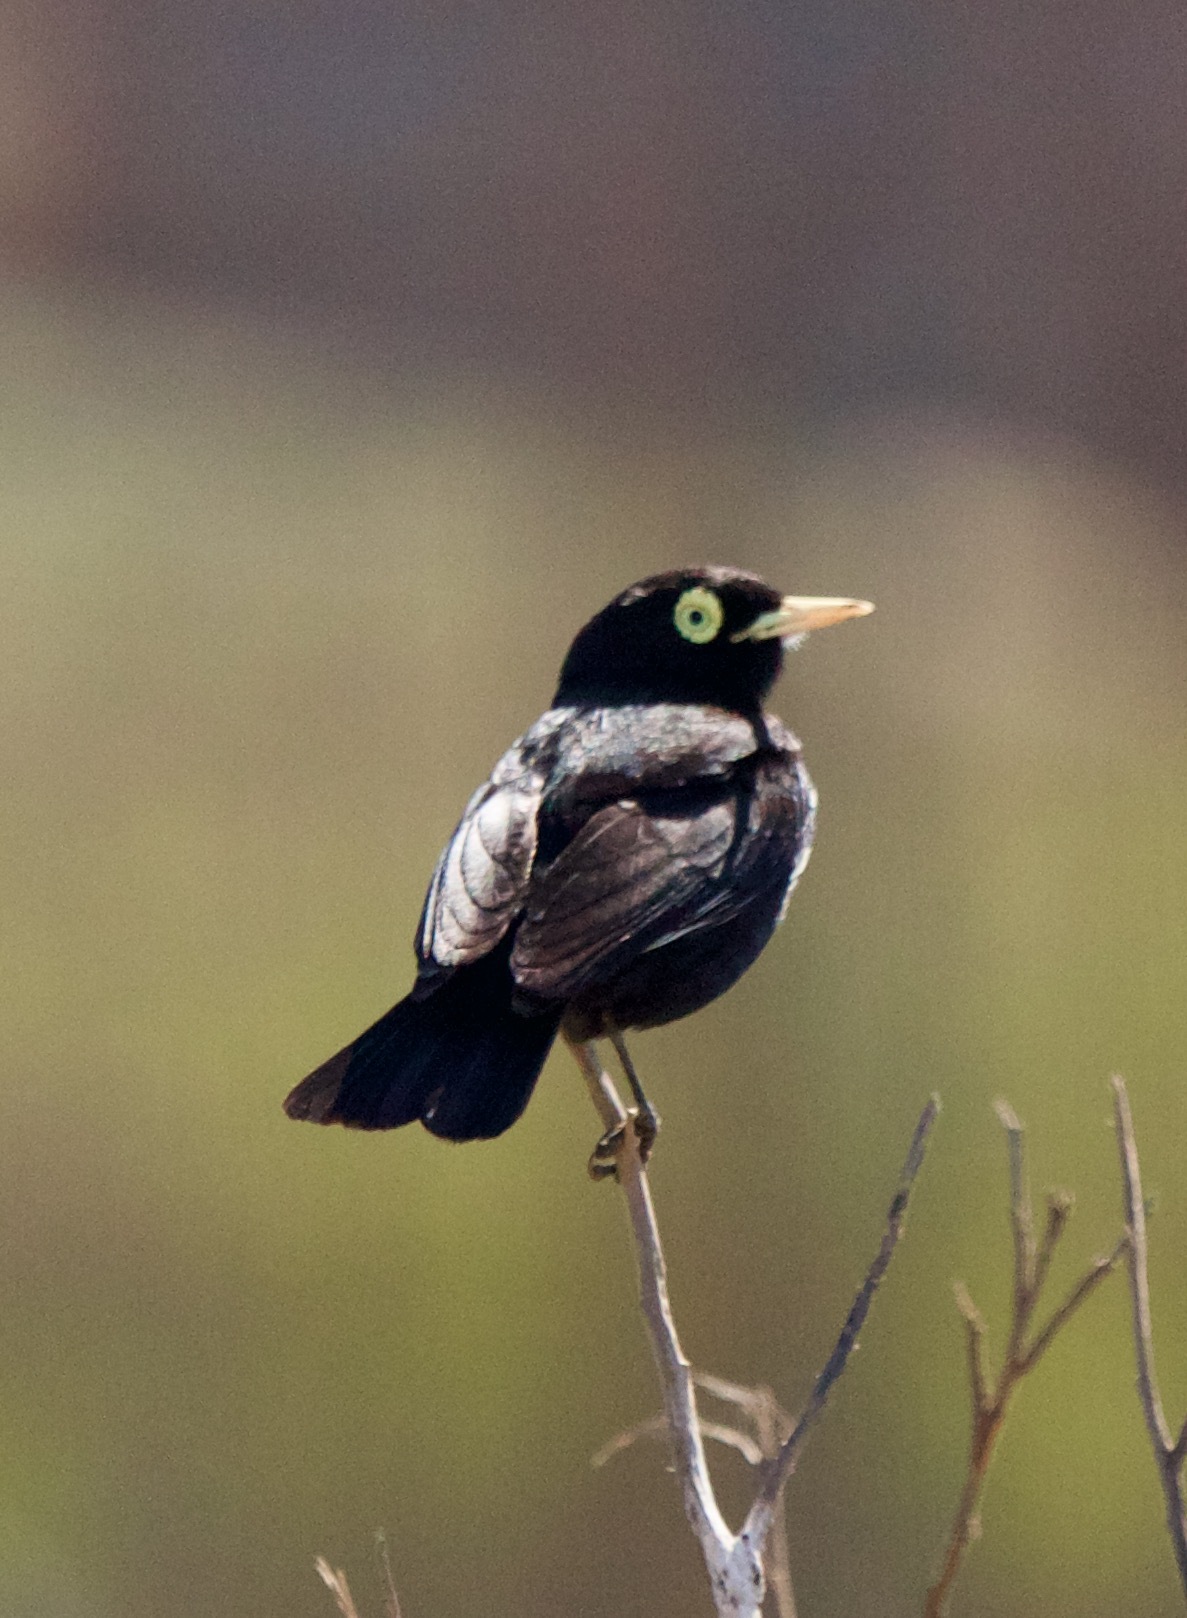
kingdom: Animalia
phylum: Chordata
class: Aves
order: Passeriformes
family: Tyrannidae
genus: Hymenops
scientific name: Hymenops perspicillatus
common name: Spectacled tyrant
